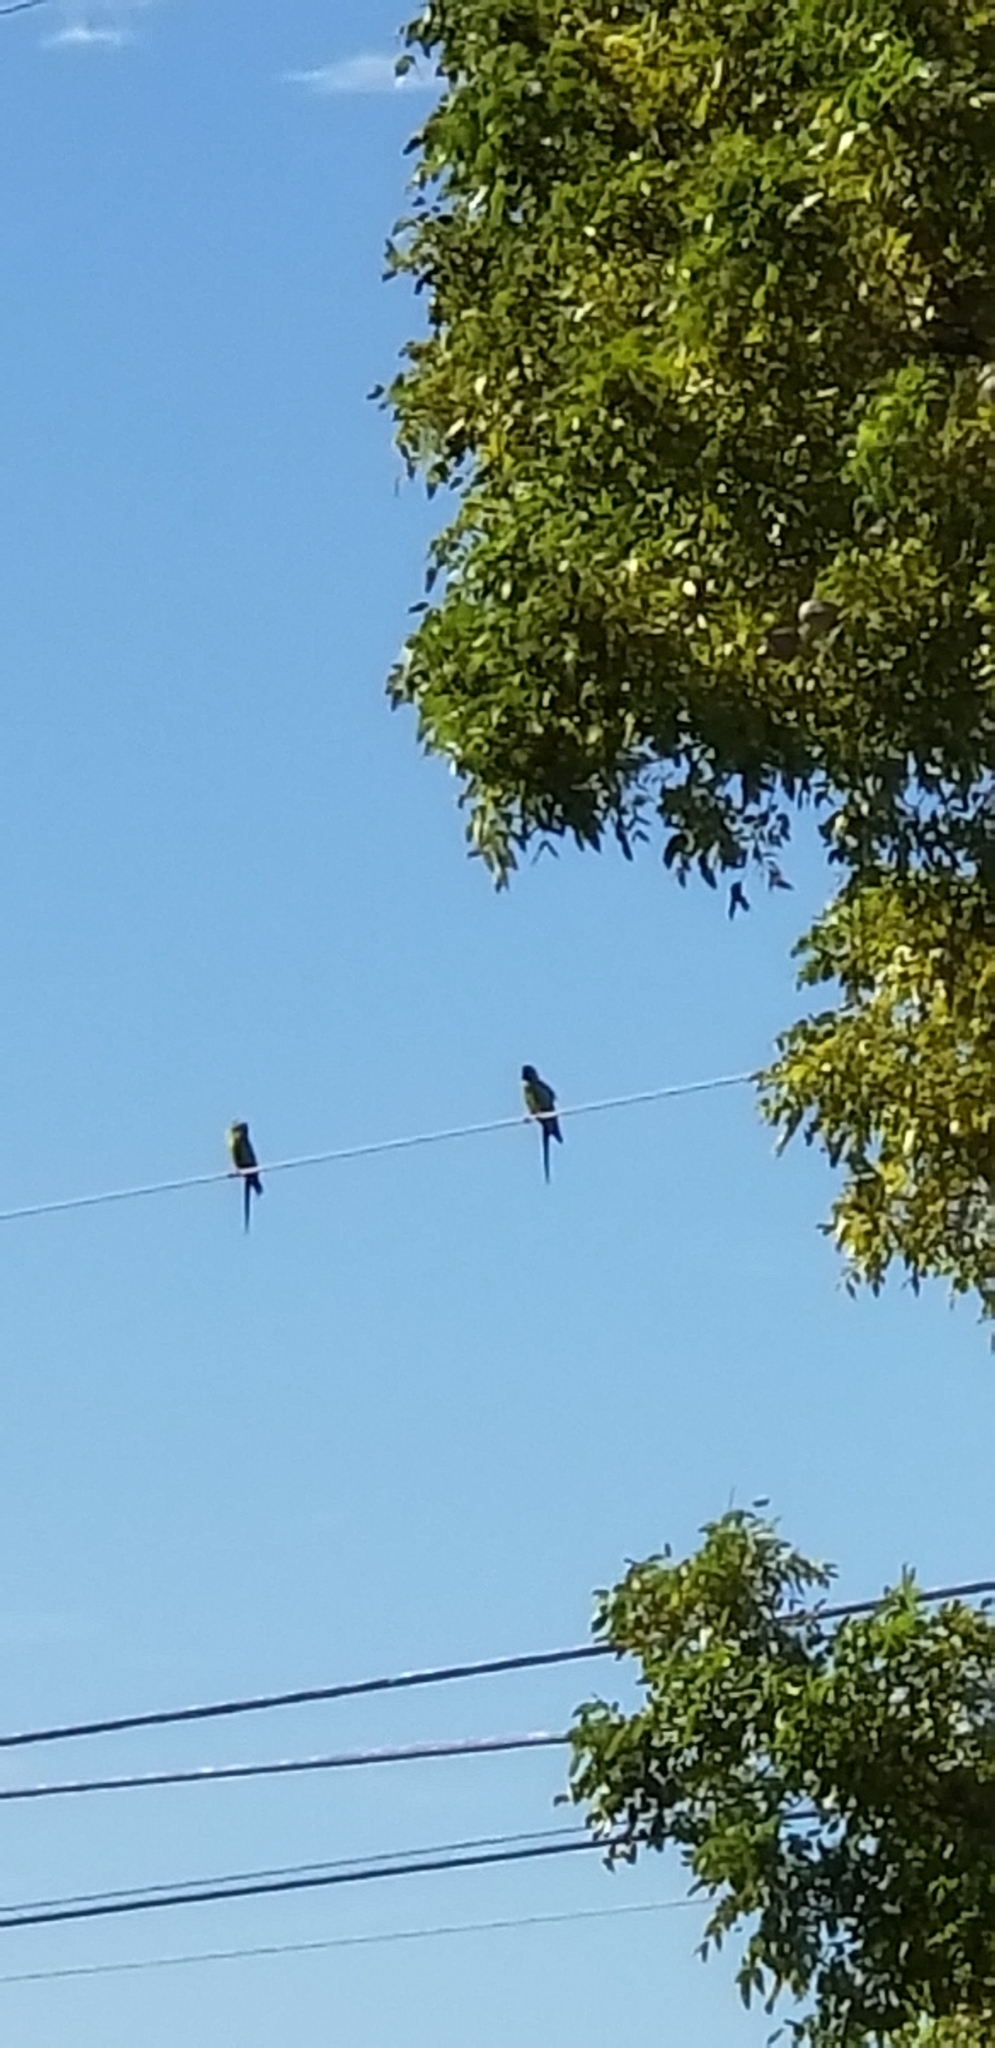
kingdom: Animalia
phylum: Chordata
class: Aves
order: Psittaciformes
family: Psittacidae
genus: Nandayus
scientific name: Nandayus nenday
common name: Nanday parakeet
